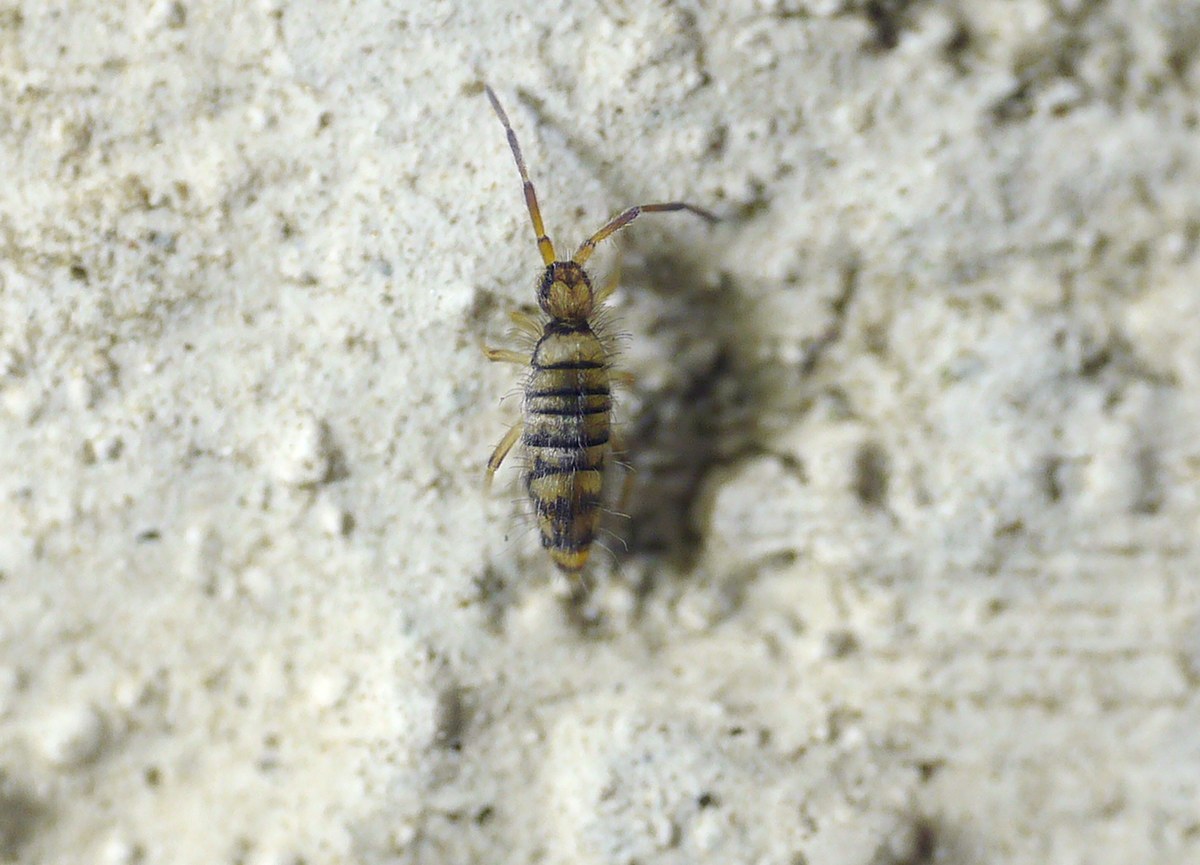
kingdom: Animalia
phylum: Arthropoda
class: Collembola
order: Entomobryomorpha
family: Entomobryidae
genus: Entomobrya
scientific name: Entomobrya multifasciata
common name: Springtail
